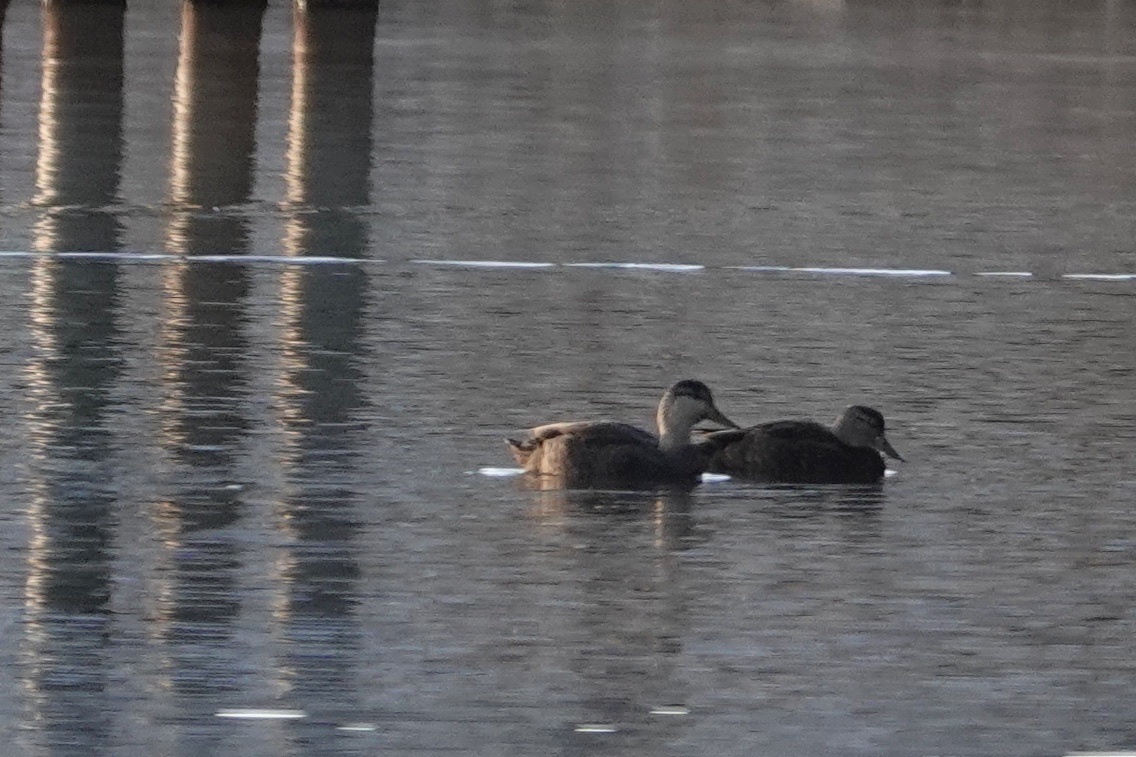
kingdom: Animalia
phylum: Chordata
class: Aves
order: Anseriformes
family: Anatidae
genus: Anas
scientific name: Anas rubripes
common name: American black duck
